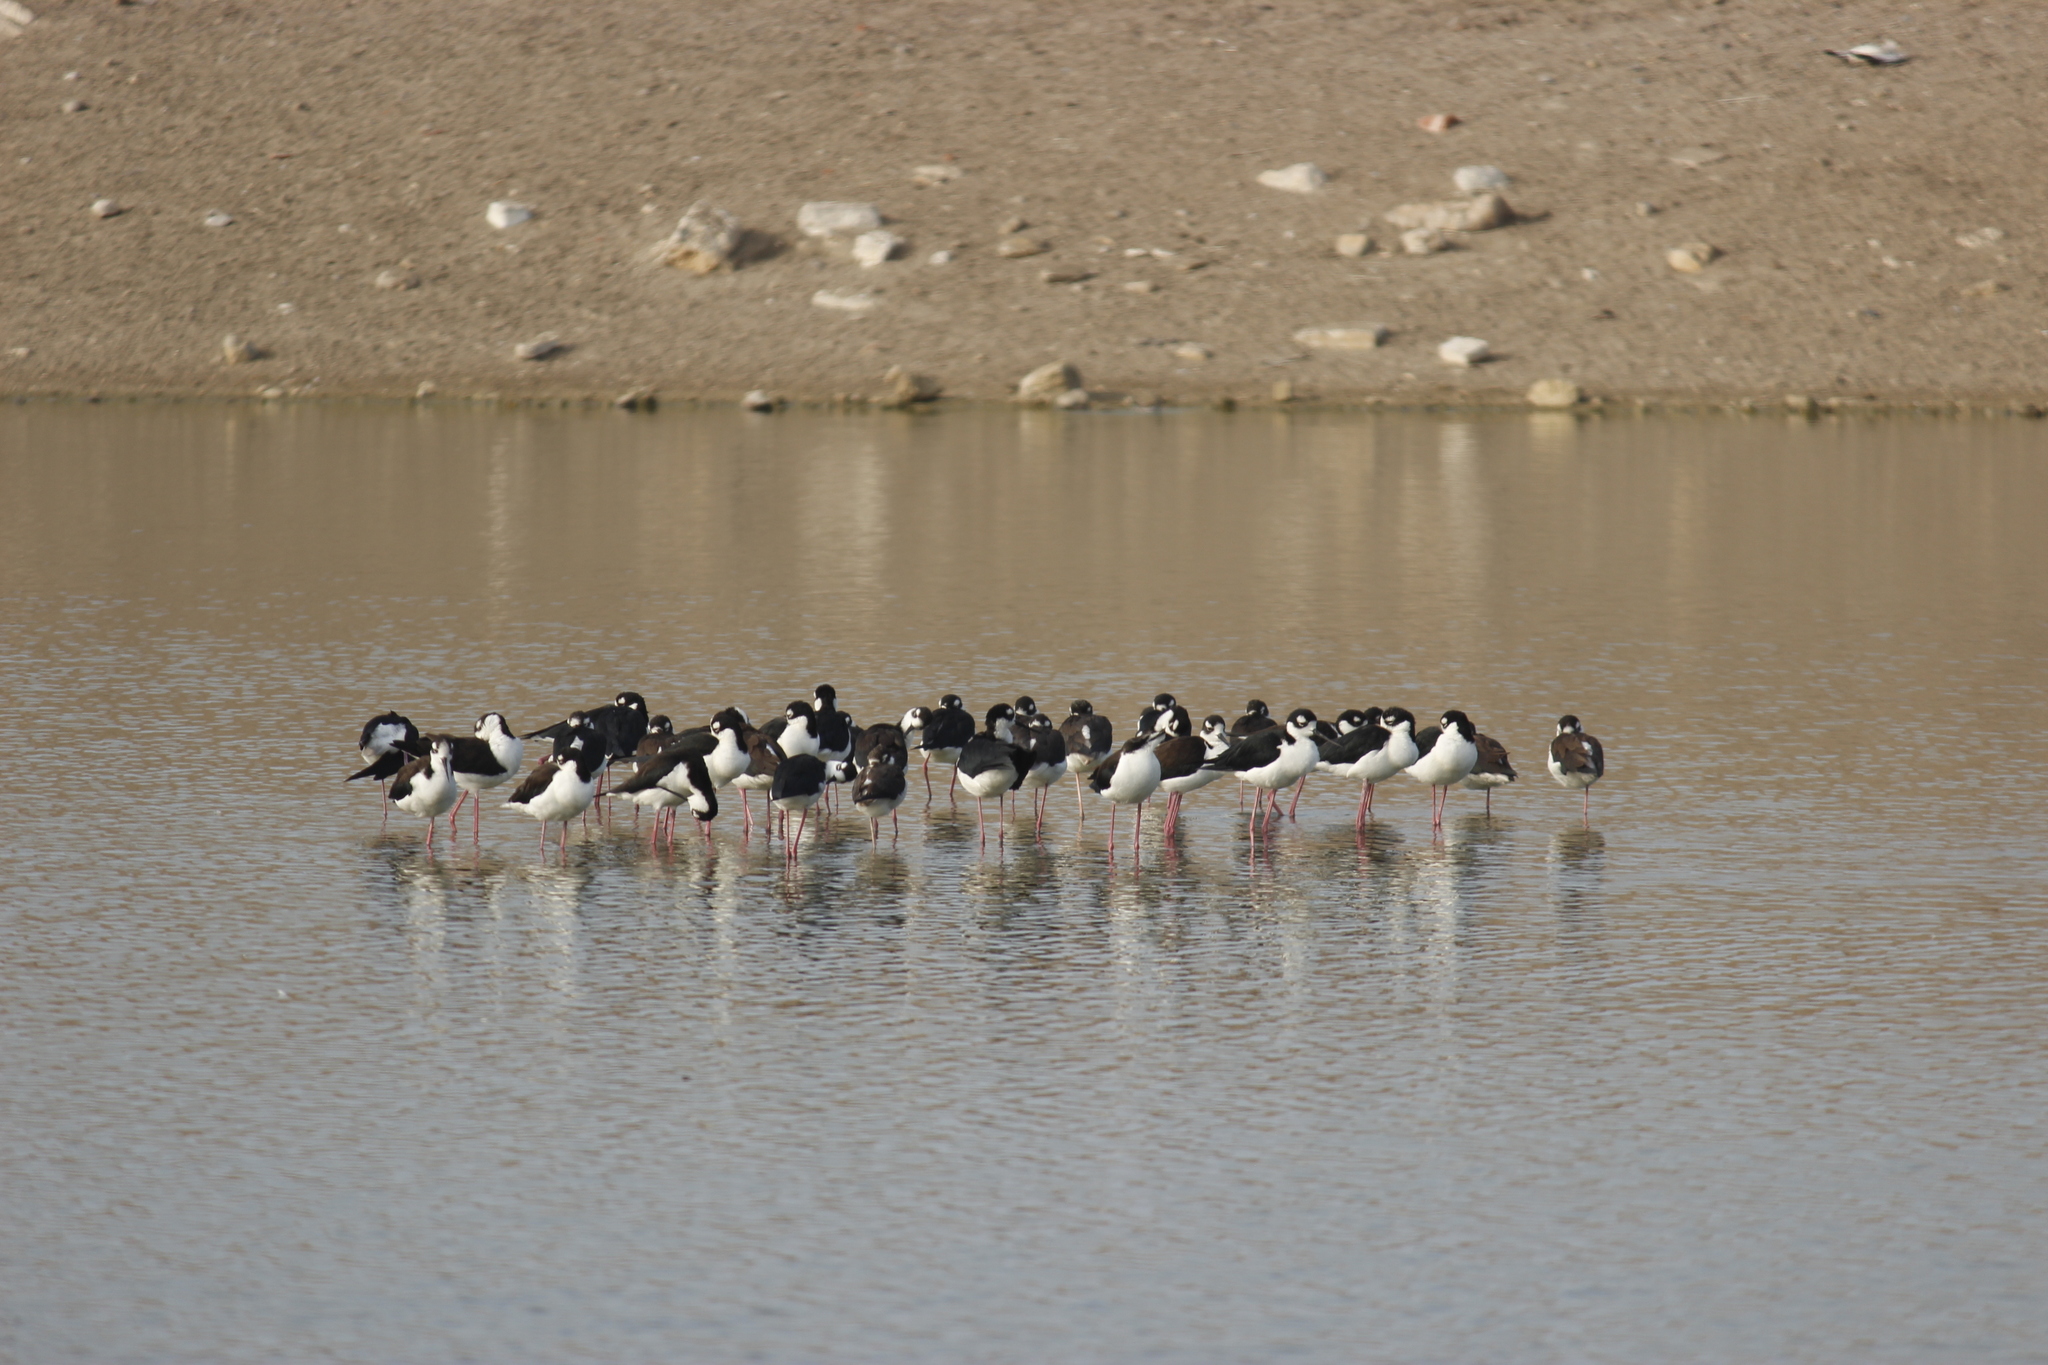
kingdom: Animalia
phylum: Chordata
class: Aves
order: Charadriiformes
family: Recurvirostridae
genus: Himantopus
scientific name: Himantopus mexicanus
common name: Black-necked stilt
